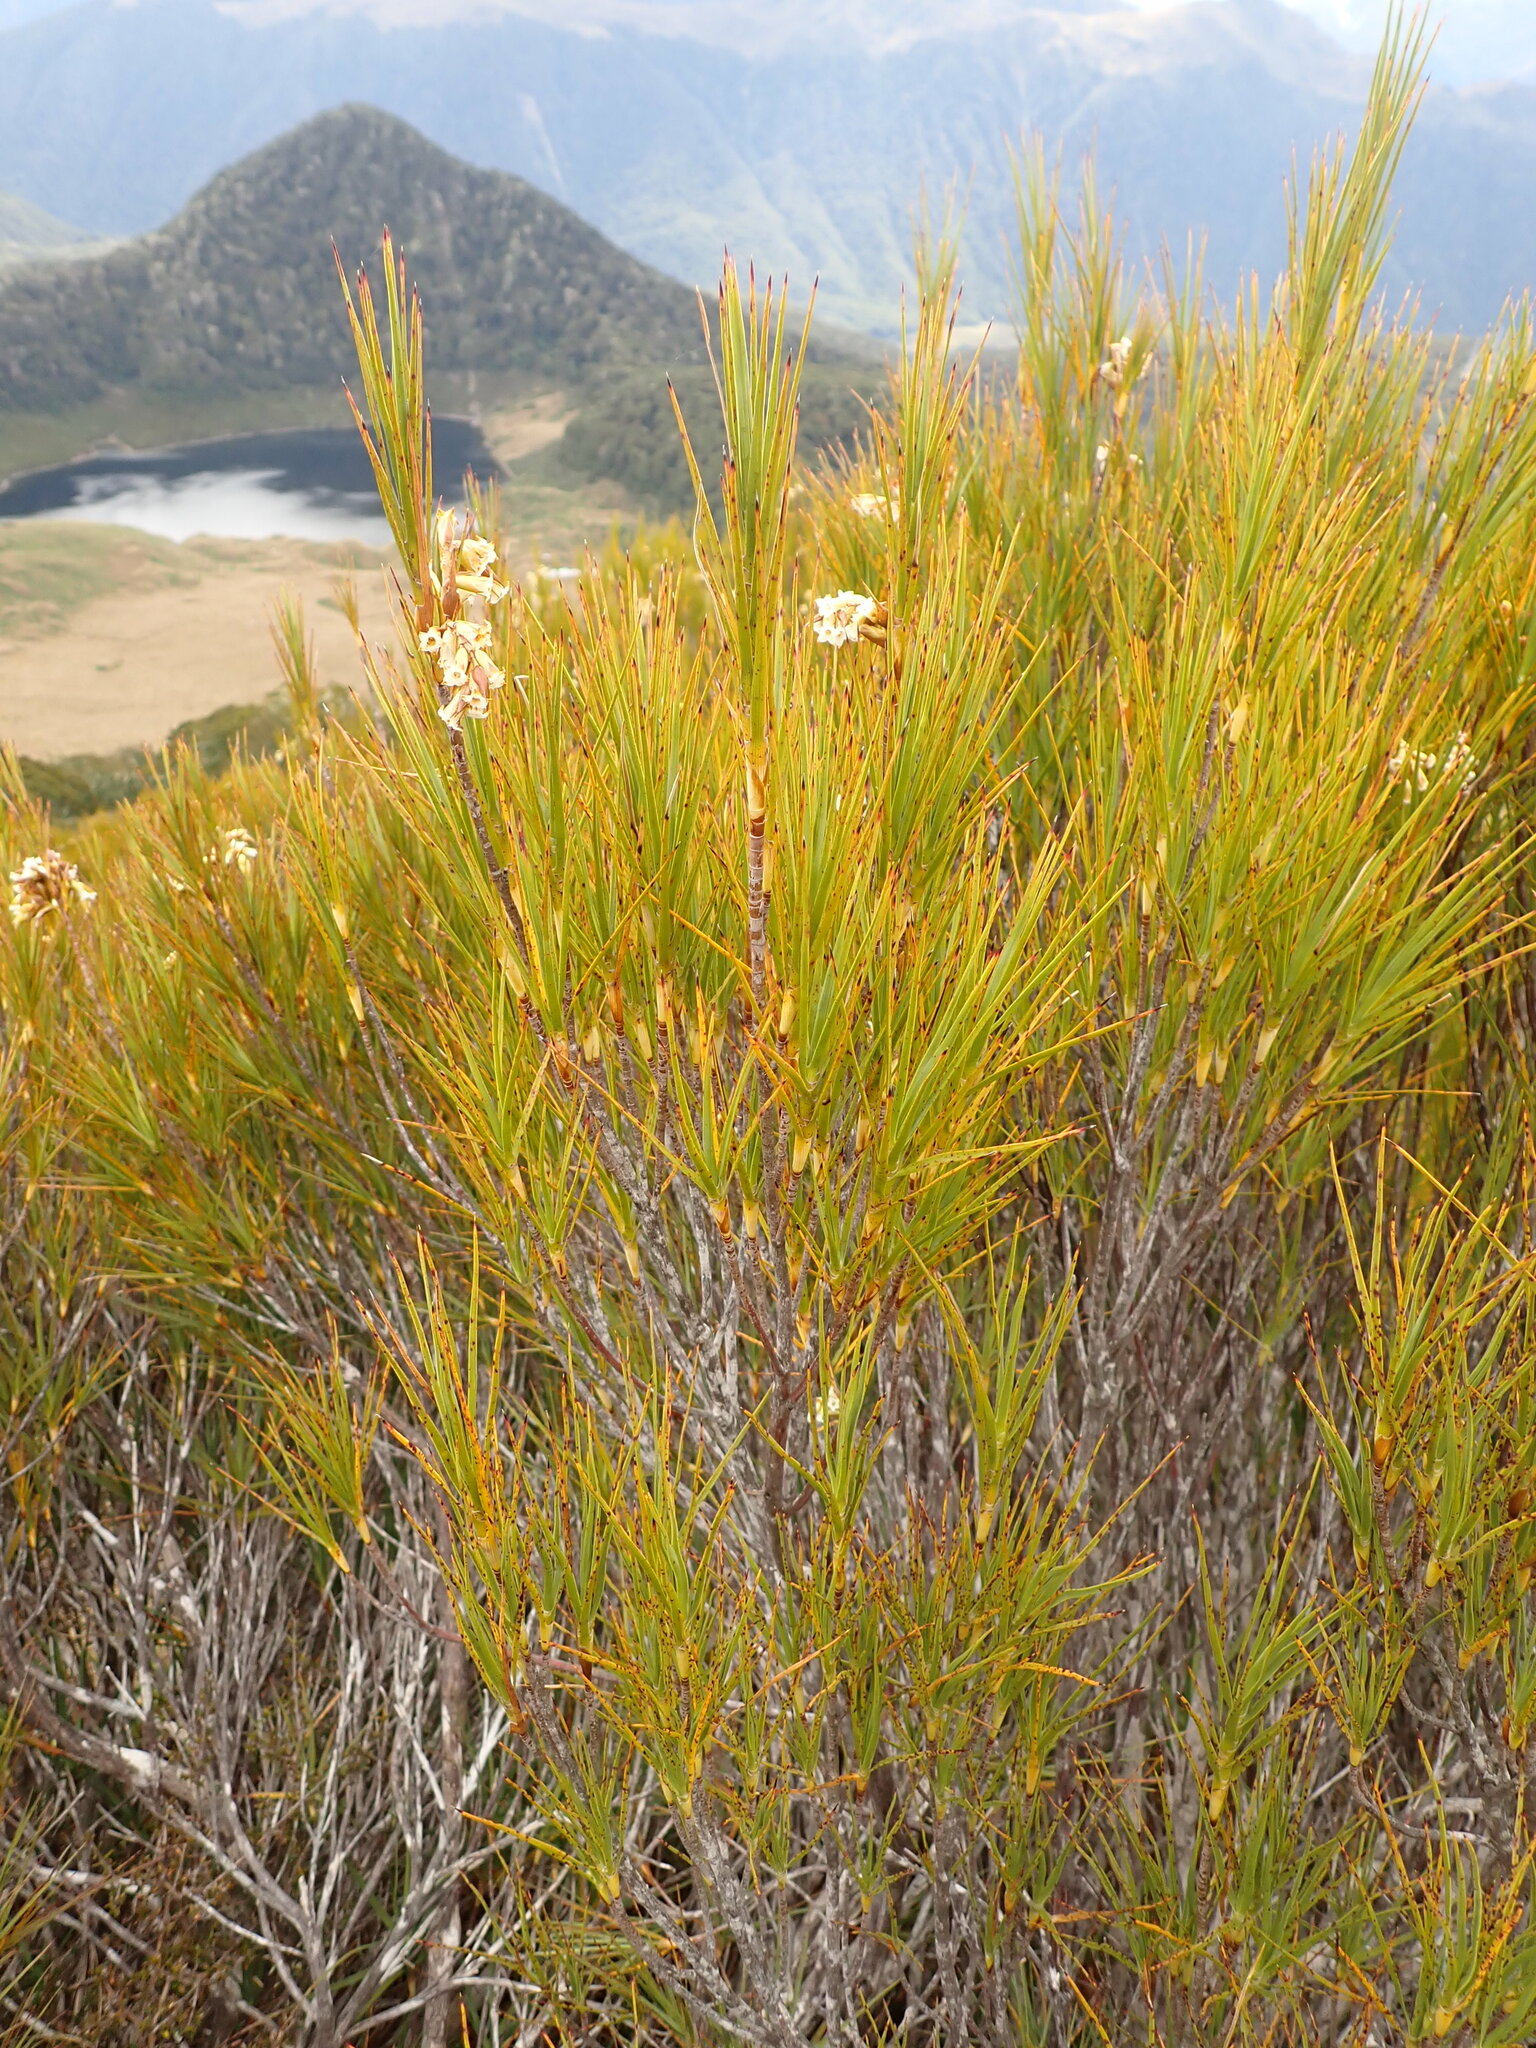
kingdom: Plantae
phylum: Tracheophyta
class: Magnoliopsida
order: Ericales
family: Ericaceae
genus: Dracophyllum
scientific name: Dracophyllum longifolium
